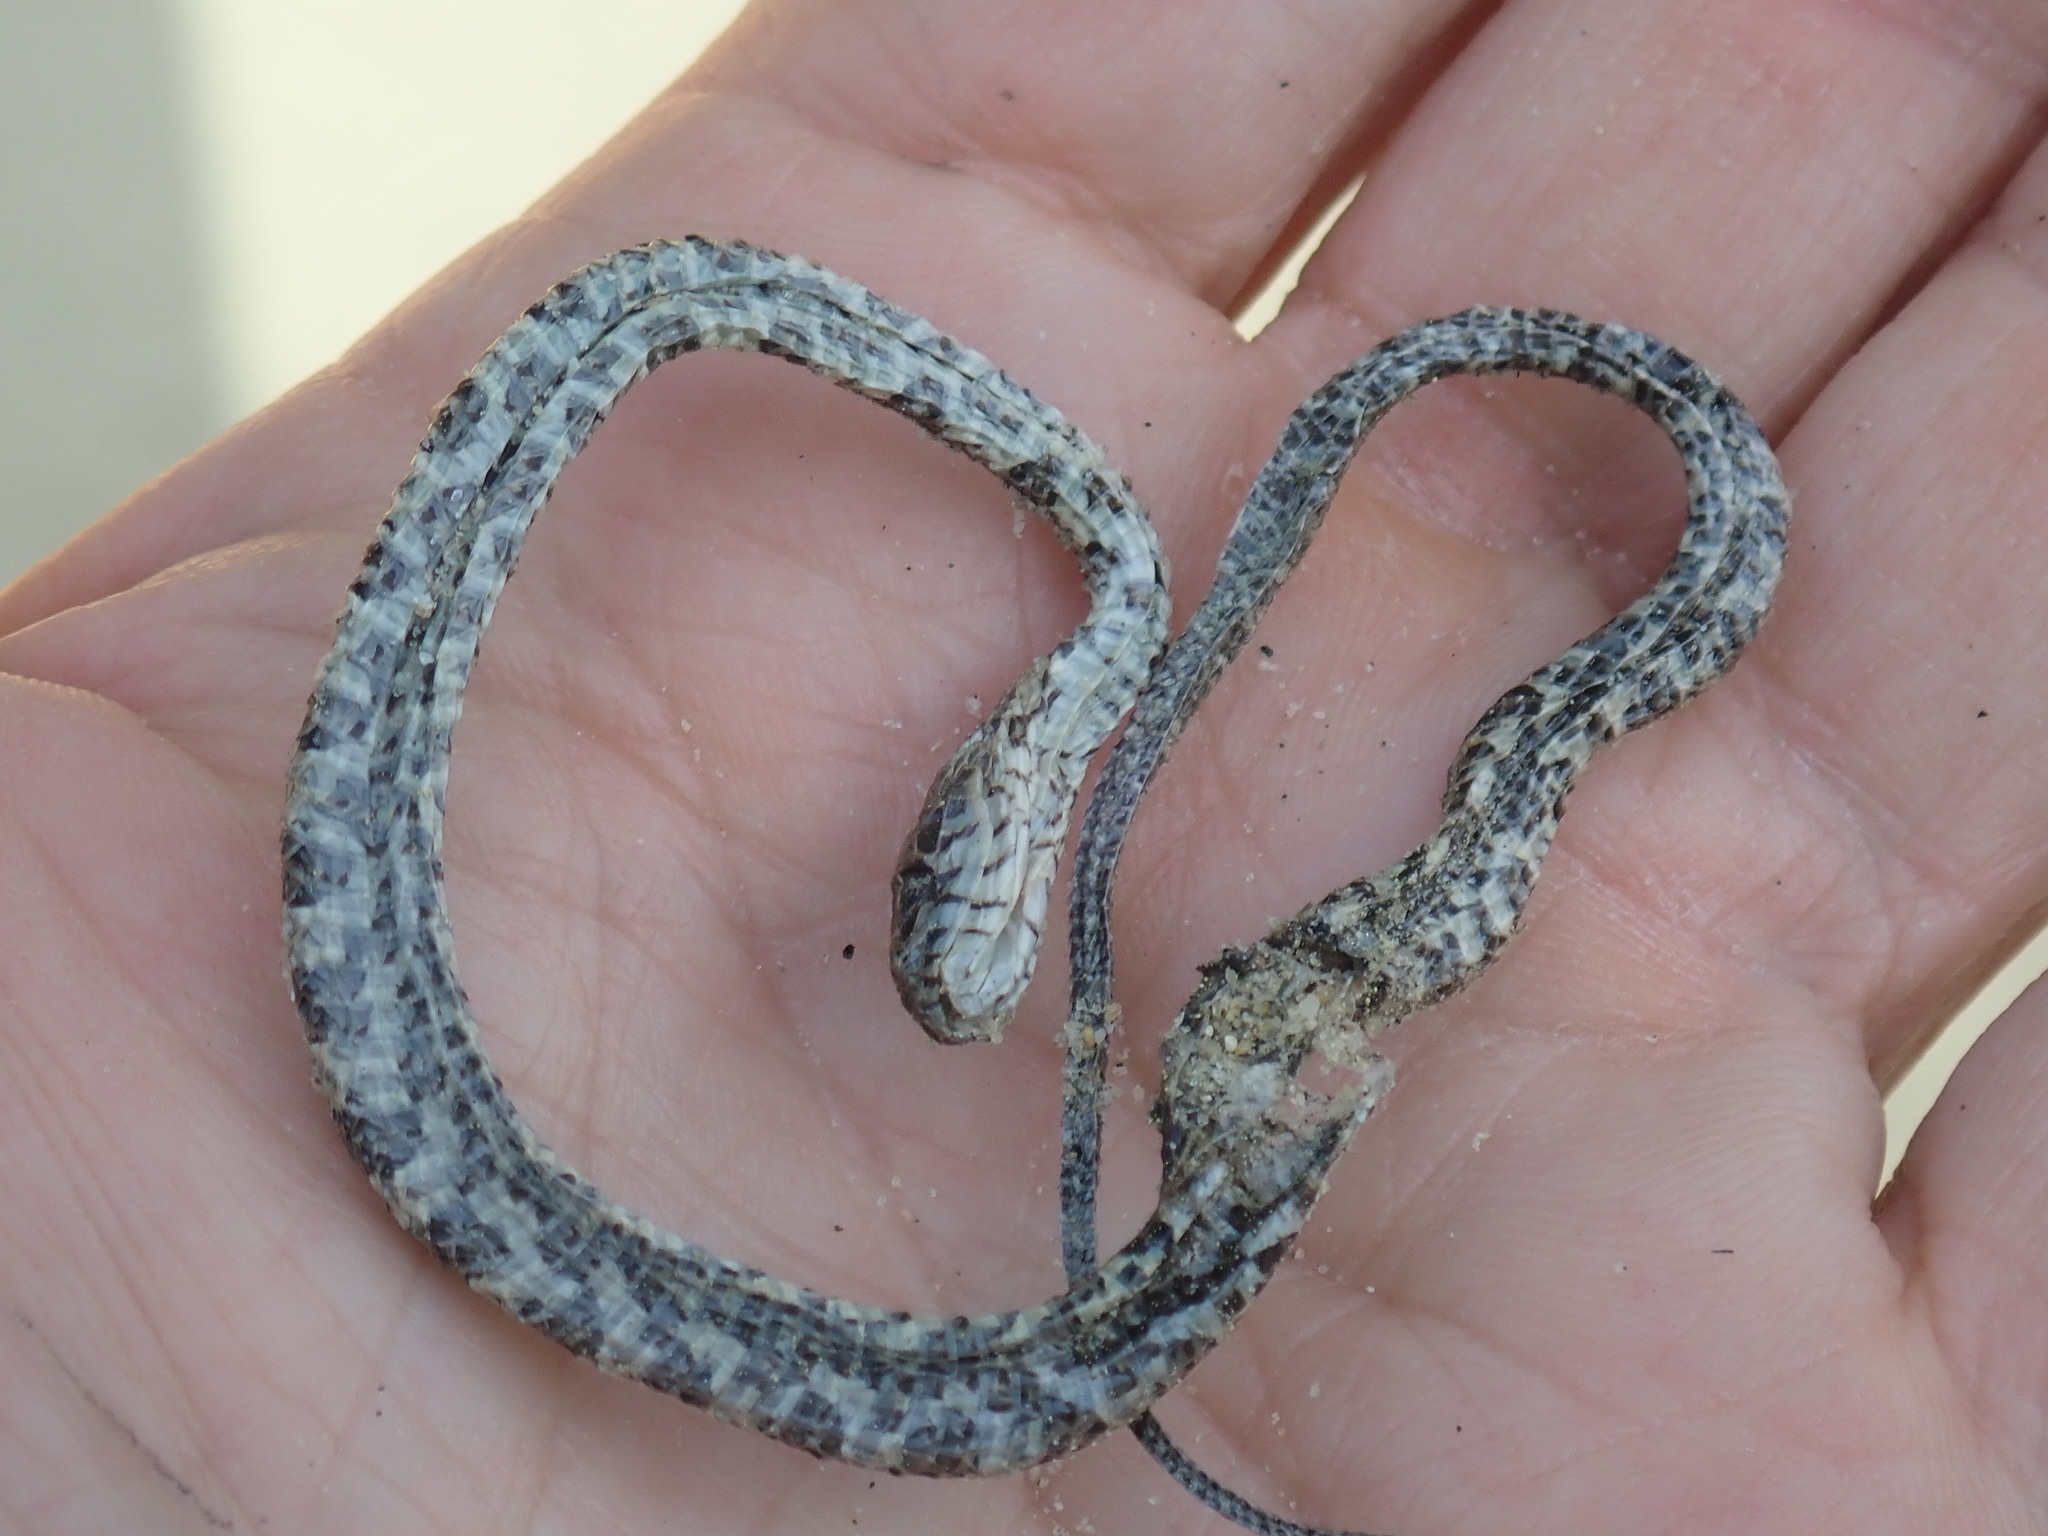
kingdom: Animalia
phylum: Chordata
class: Squamata
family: Colubridae
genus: Nerodia
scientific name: Nerodia sipedon
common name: Northern water snake
